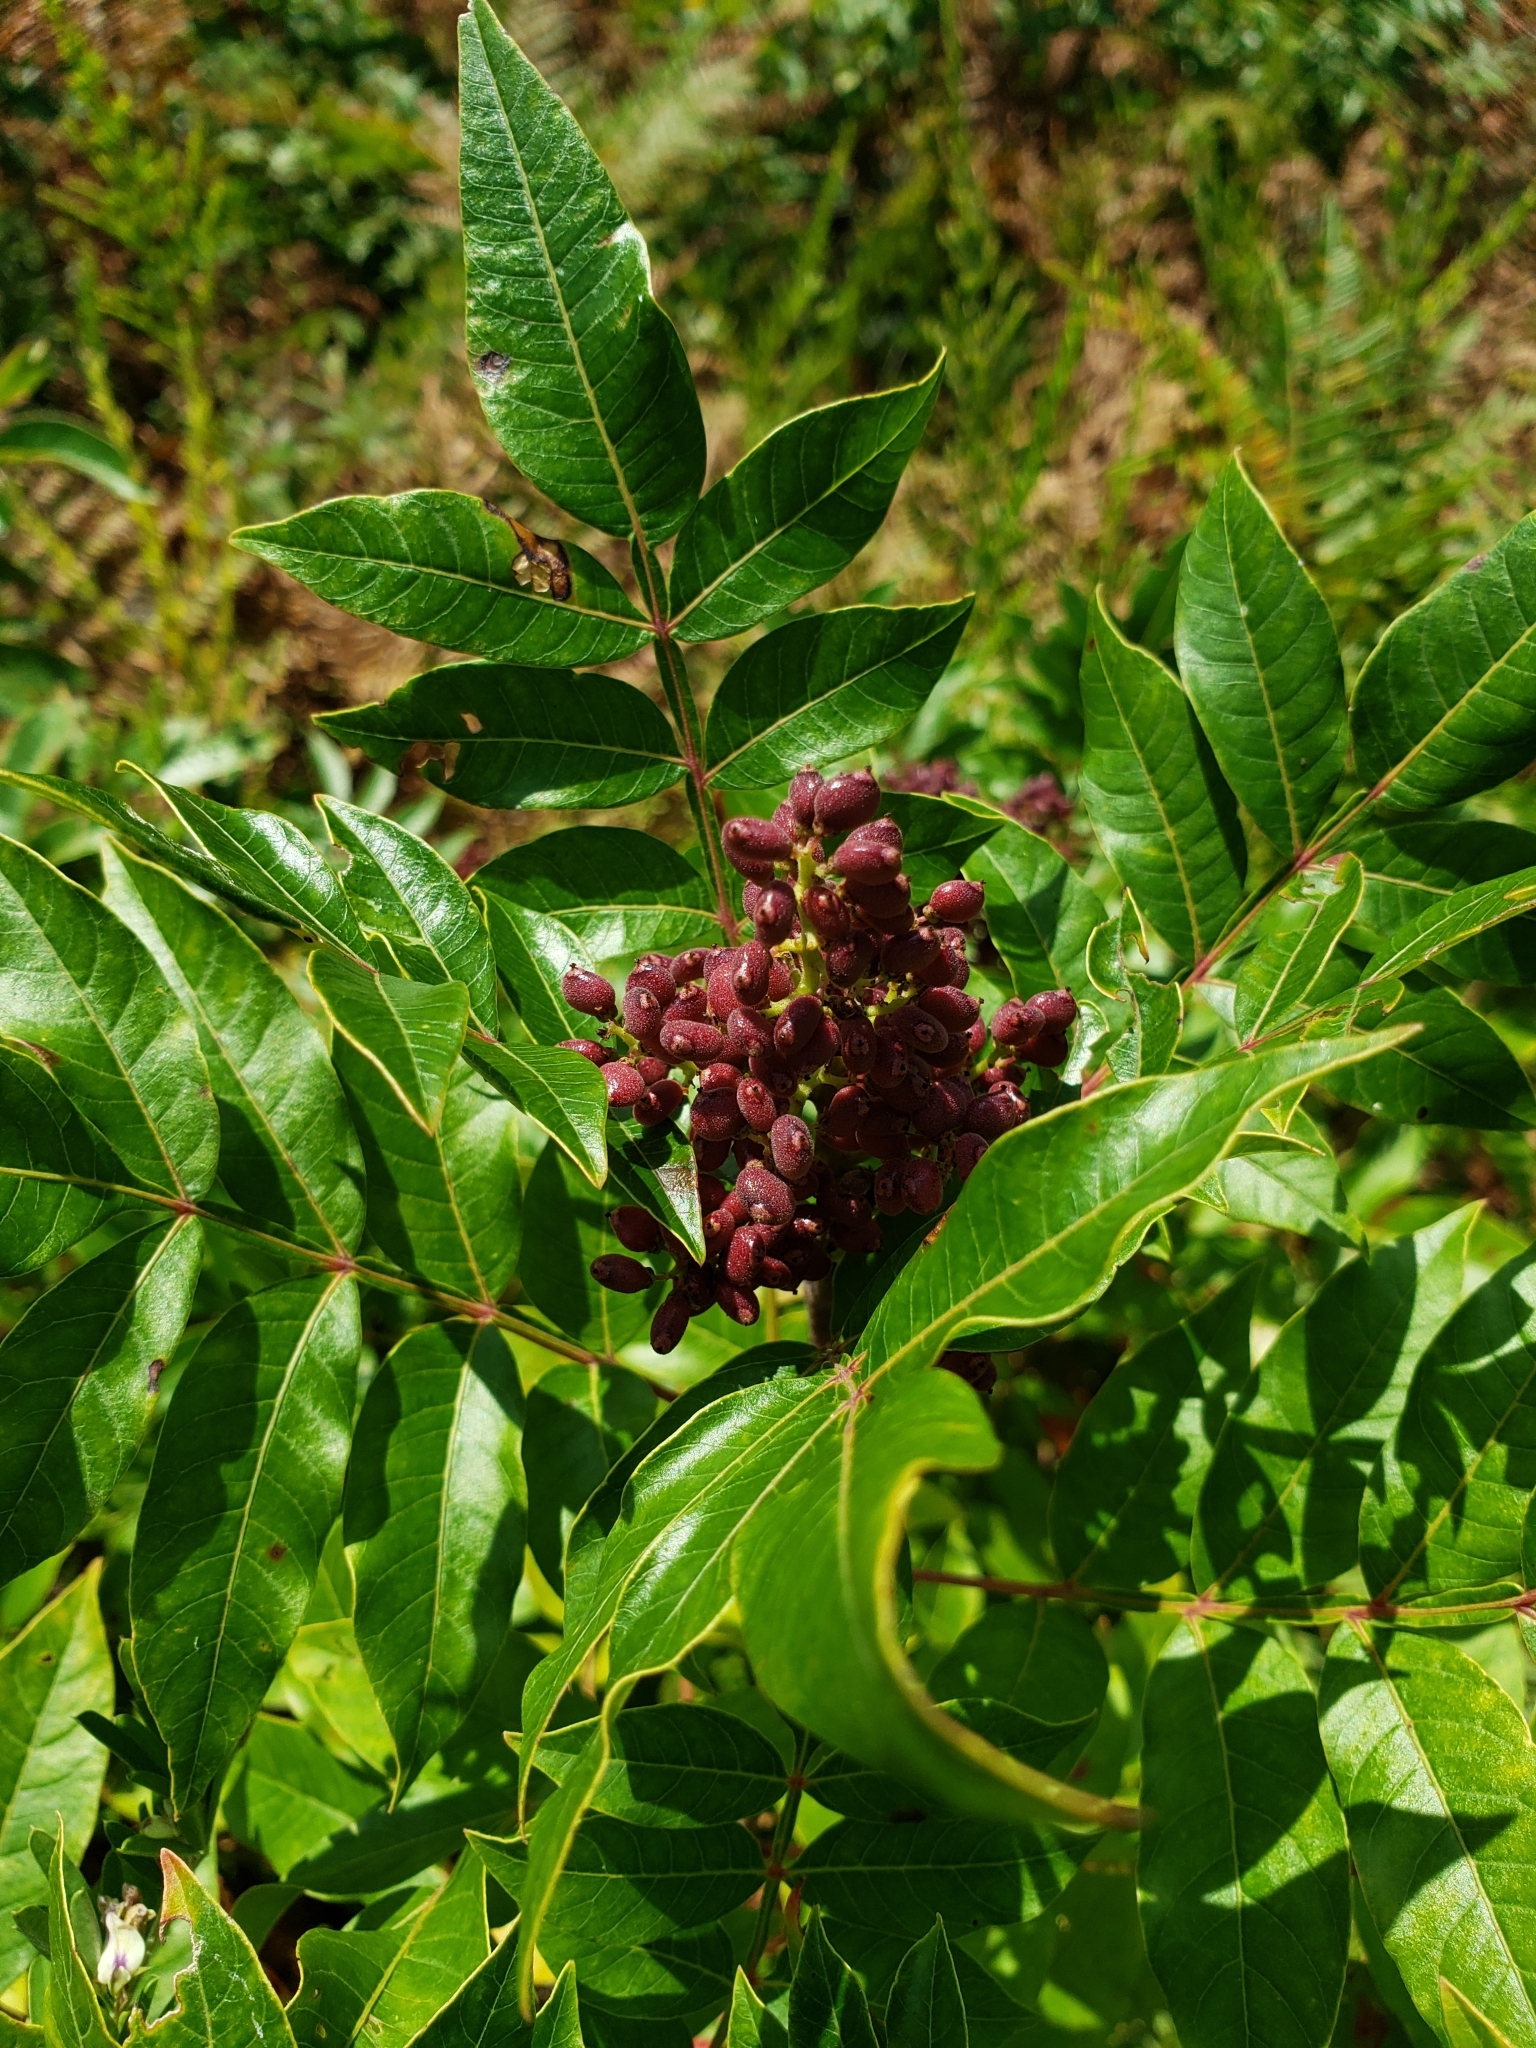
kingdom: Plantae
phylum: Tracheophyta
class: Magnoliopsida
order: Sapindales
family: Anacardiaceae
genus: Rhus
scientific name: Rhus copallina
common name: Shining sumac
